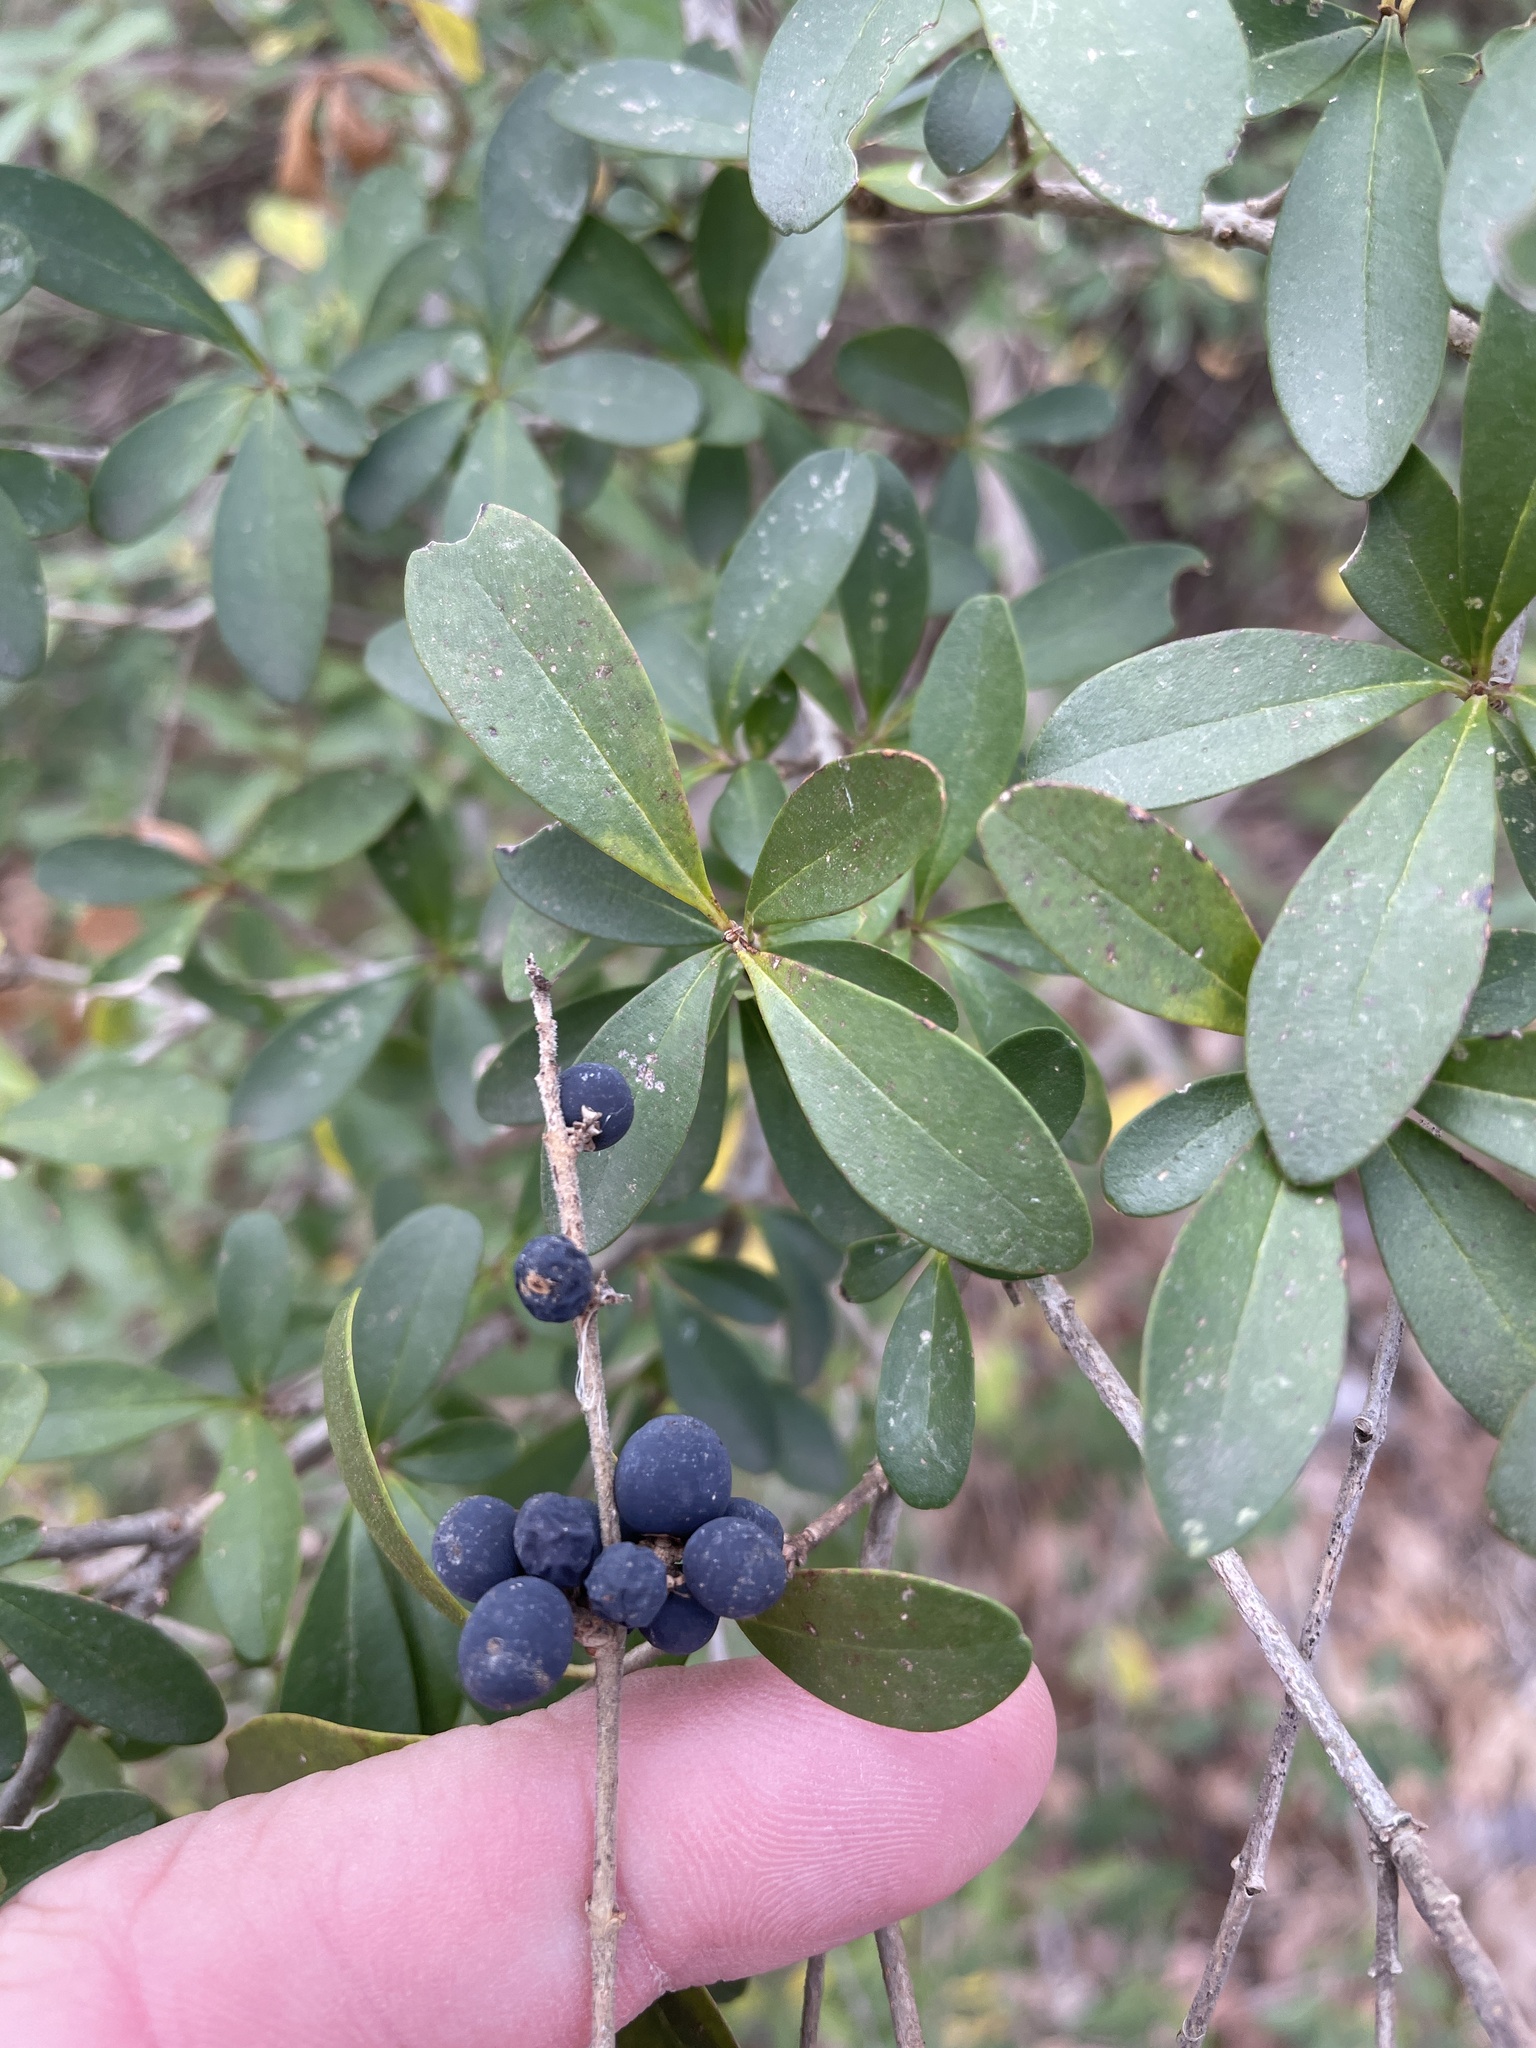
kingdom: Plantae
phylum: Tracheophyta
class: Magnoliopsida
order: Lamiales
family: Oleaceae
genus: Ligustrum
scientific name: Ligustrum quihoui
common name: Waxyleaf privet
